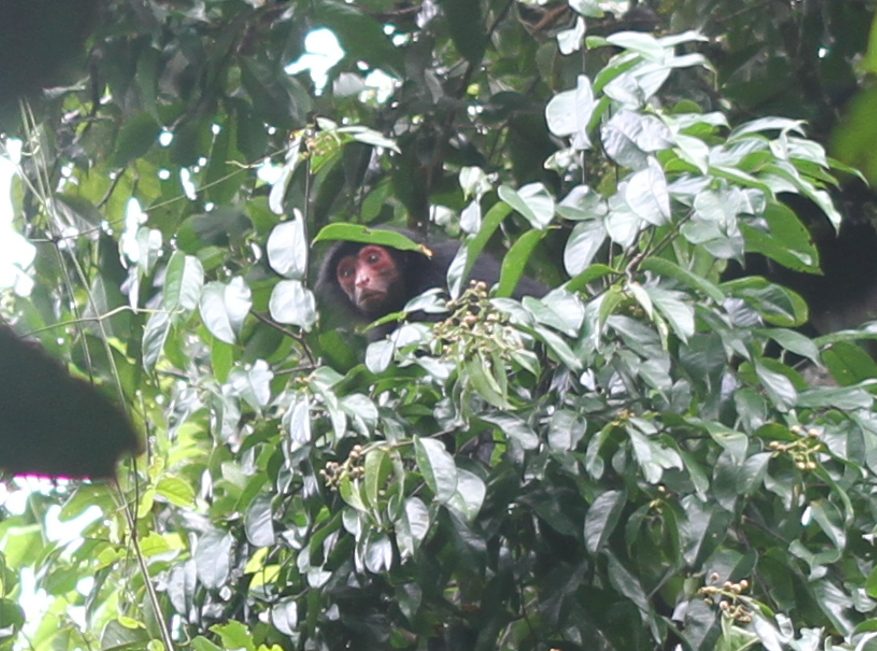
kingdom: Animalia
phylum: Chordata
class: Mammalia
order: Primates
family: Atelidae
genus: Ateles
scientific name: Ateles paniscus
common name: Red-faced spider monkey
